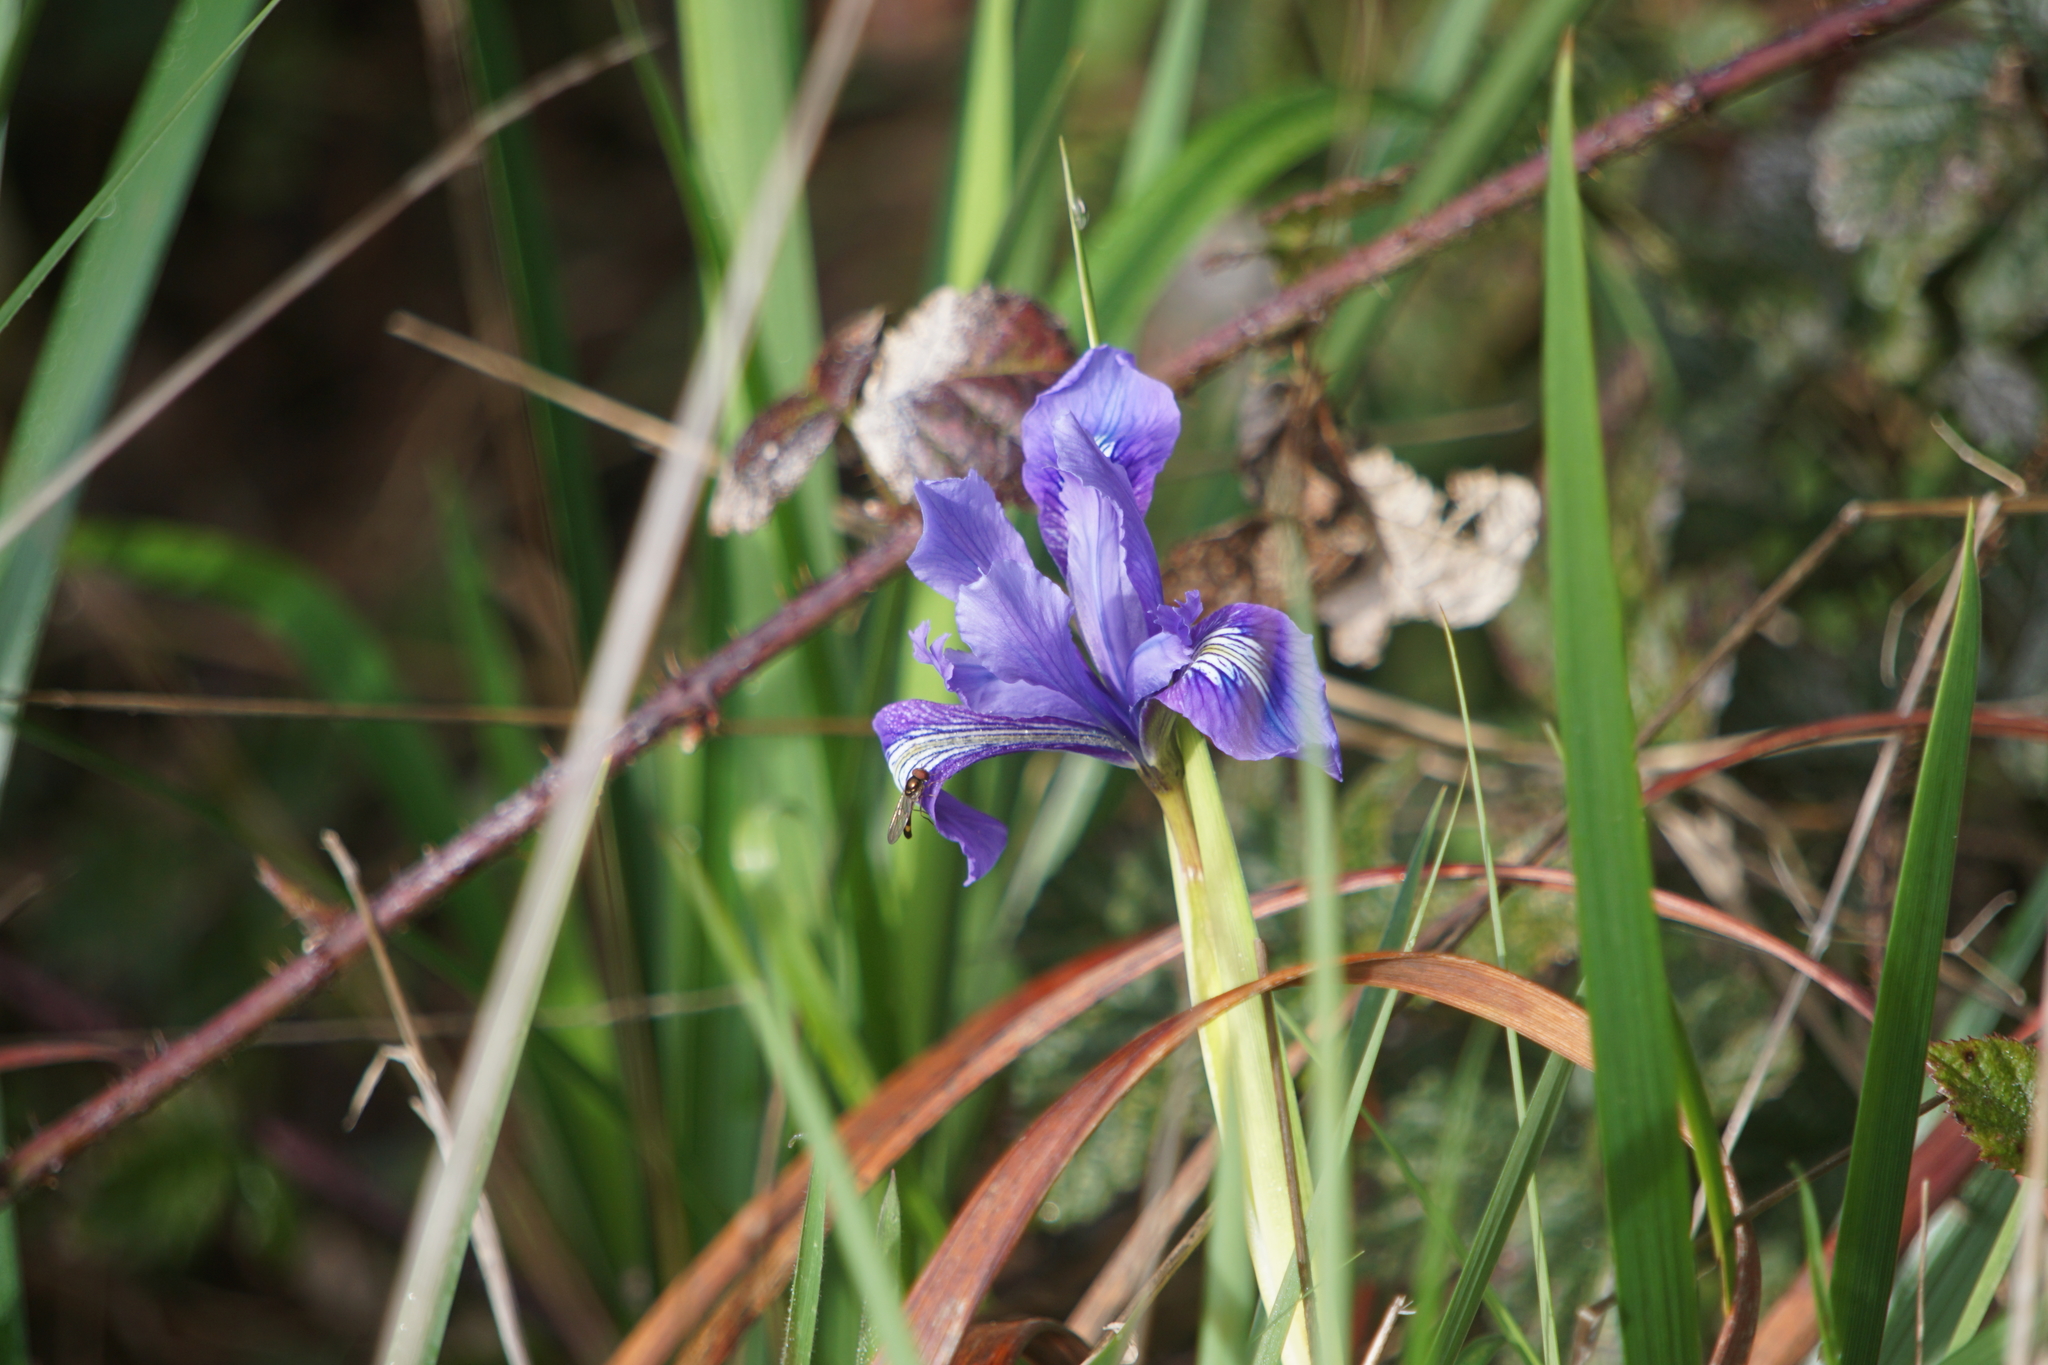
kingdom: Plantae
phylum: Tracheophyta
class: Liliopsida
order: Asparagales
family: Iridaceae
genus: Iris
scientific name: Iris douglasiana
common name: Marin iris
